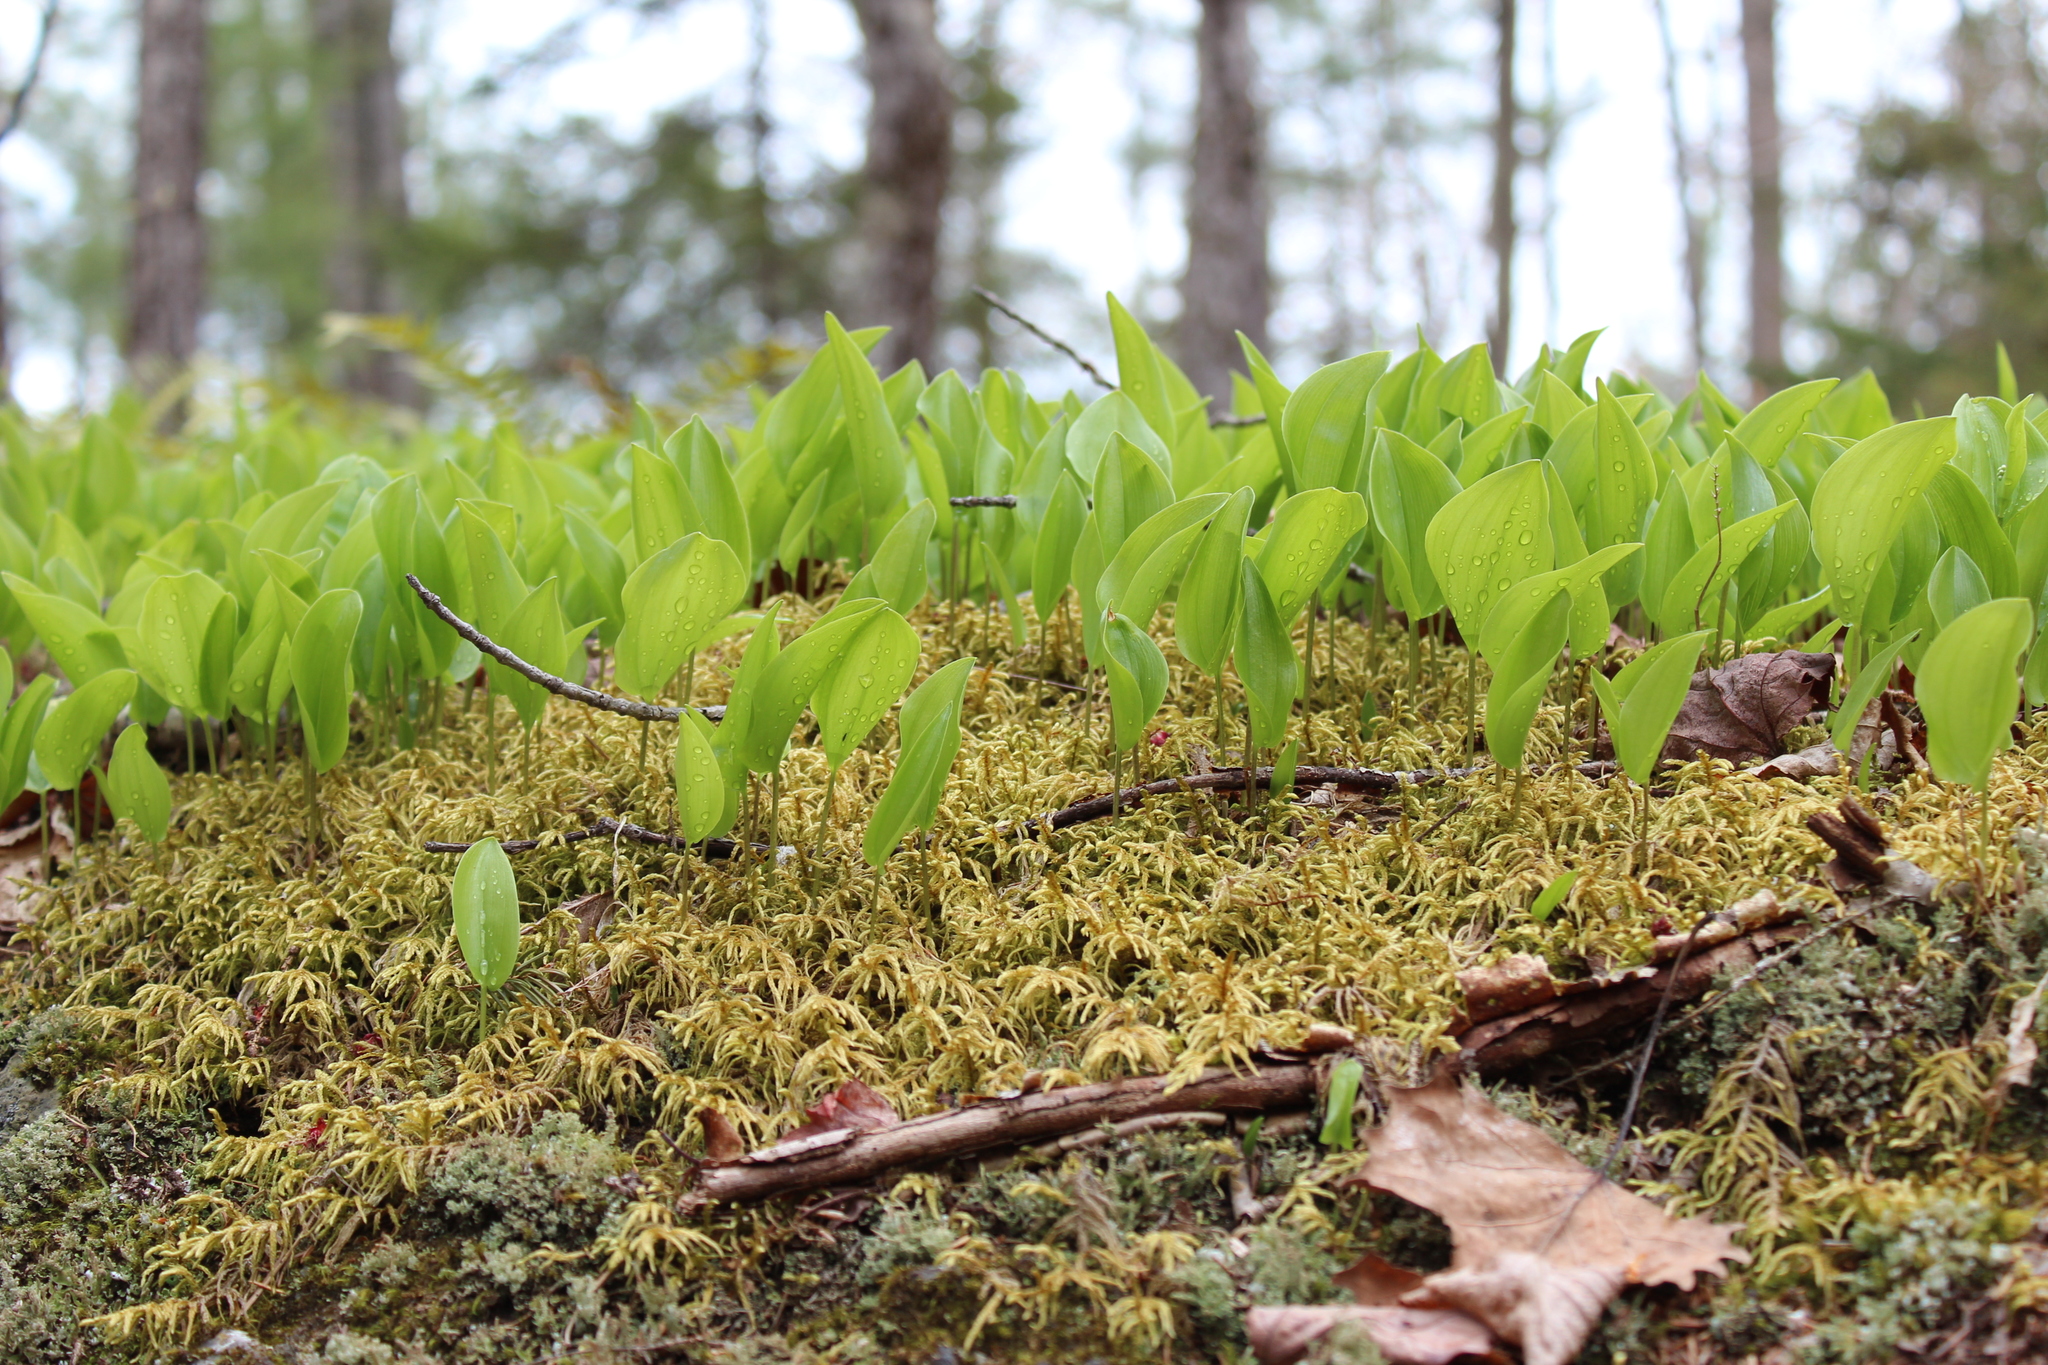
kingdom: Plantae
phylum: Tracheophyta
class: Liliopsida
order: Asparagales
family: Asparagaceae
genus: Maianthemum
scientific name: Maianthemum canadense
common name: False lily-of-the-valley
